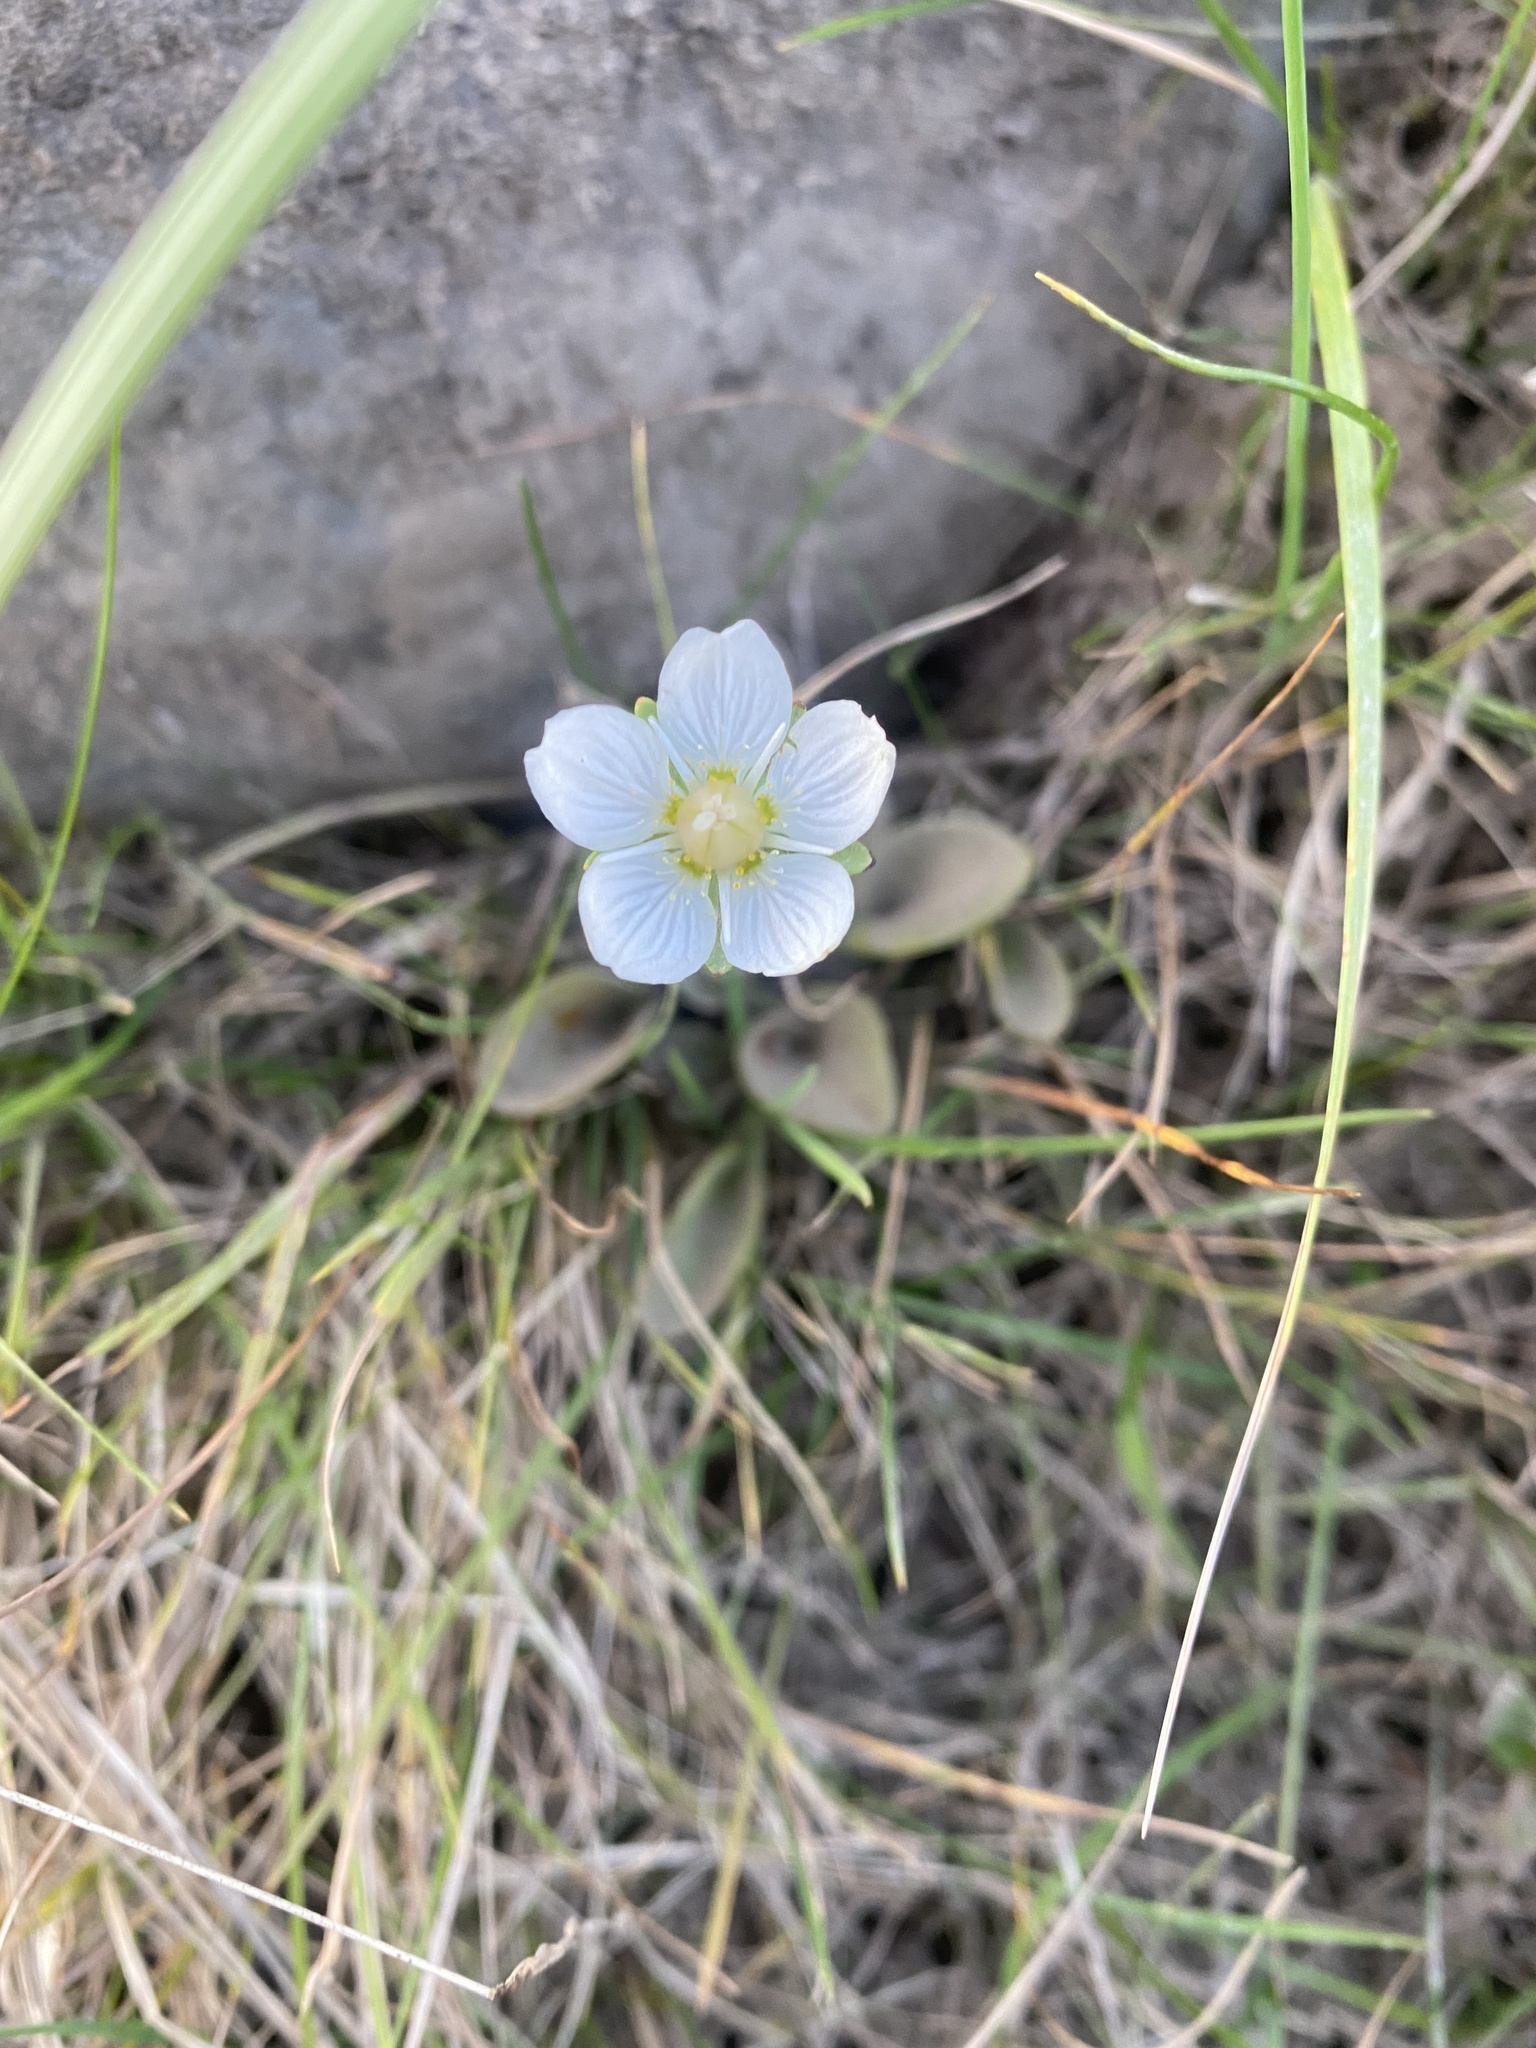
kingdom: Plantae
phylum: Tracheophyta
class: Magnoliopsida
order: Celastrales
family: Parnassiaceae
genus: Parnassia
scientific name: Parnassia palustris
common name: Grass-of-parnassus
